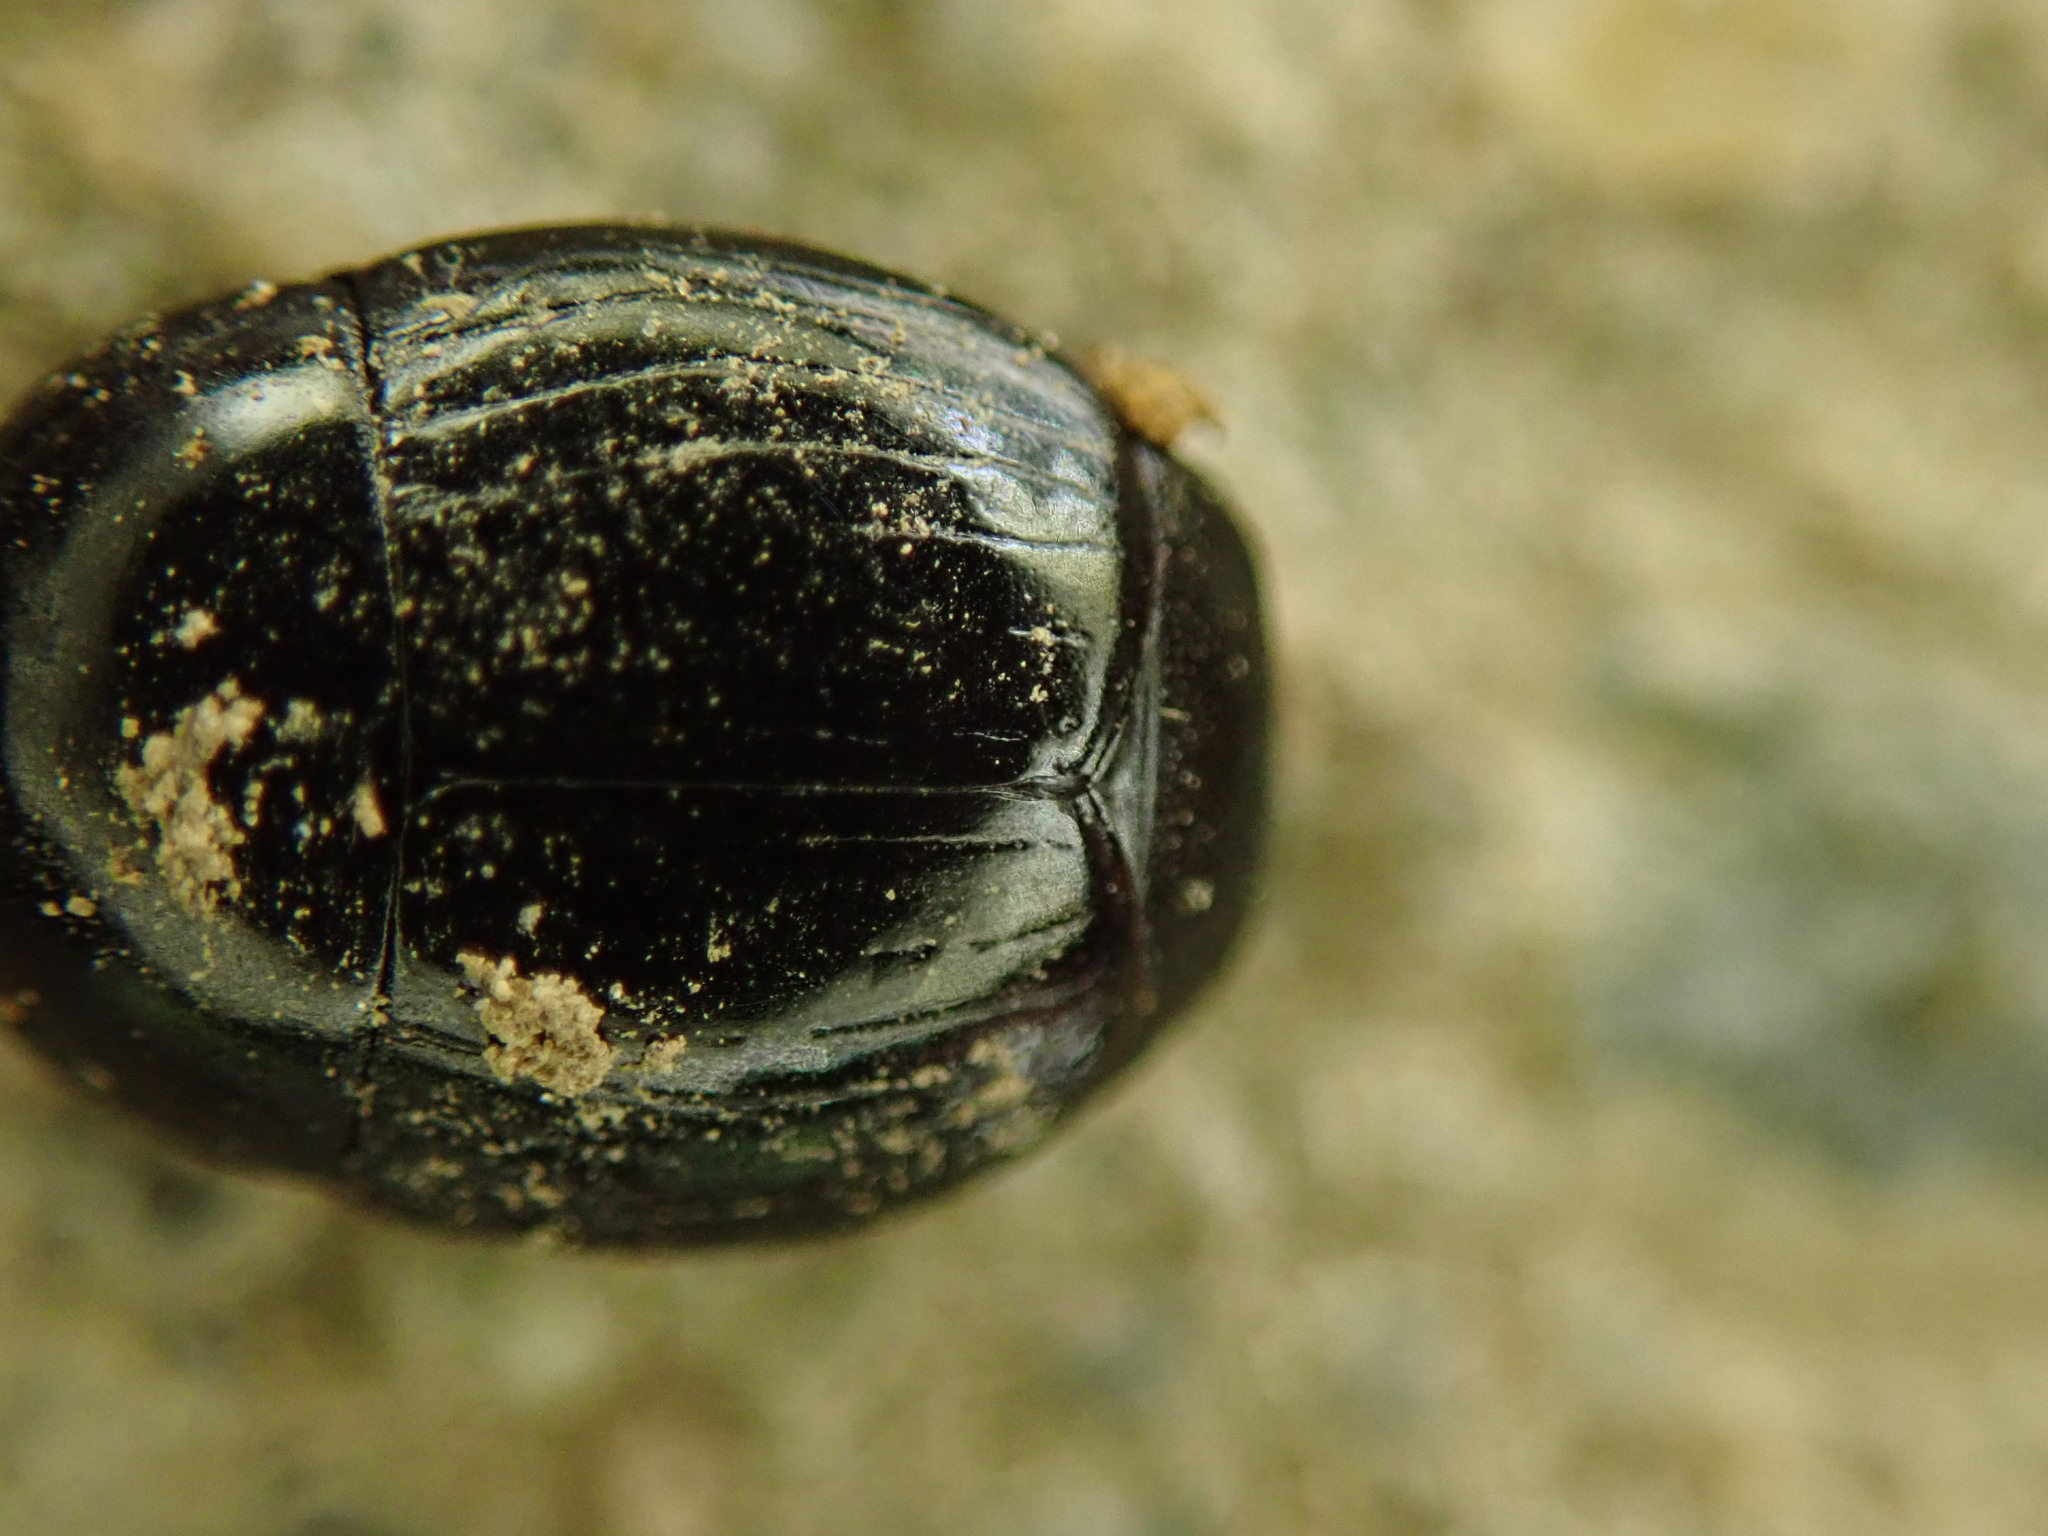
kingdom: Animalia
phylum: Arthropoda
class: Insecta
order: Coleoptera
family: Histeridae
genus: Hister
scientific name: Hister unicolor
